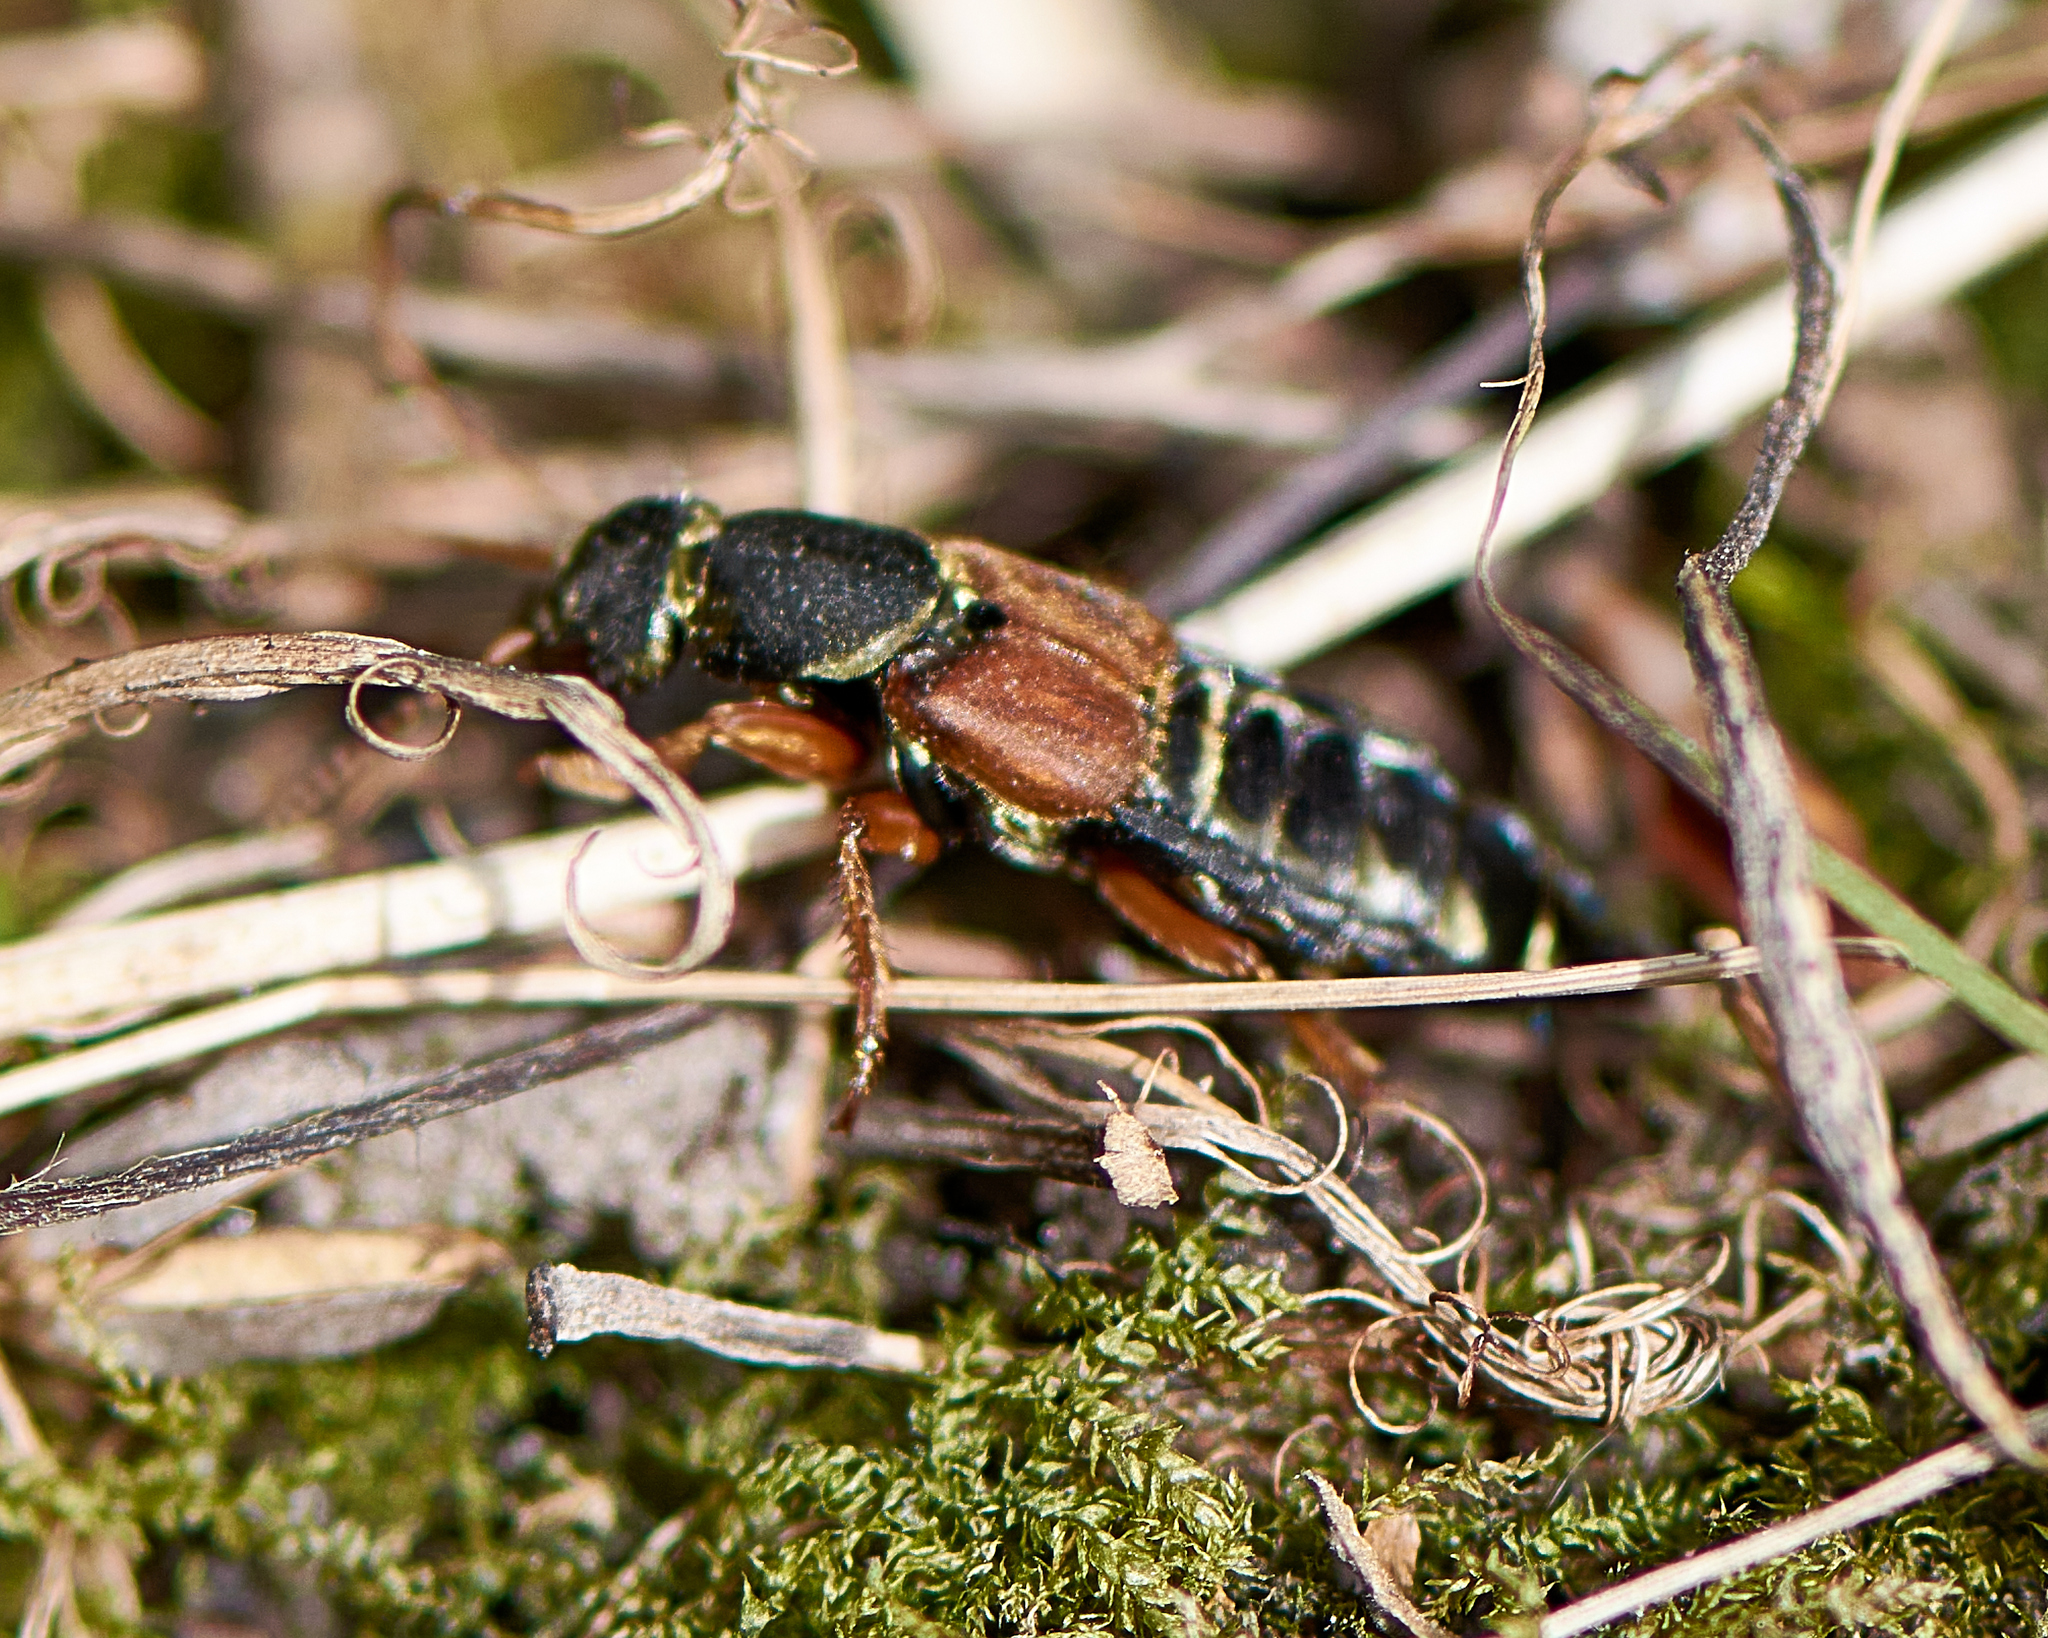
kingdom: Animalia
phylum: Arthropoda
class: Insecta
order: Coleoptera
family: Staphylinidae
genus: Staphylinus
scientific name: Staphylinus caesareus
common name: Staph beetle
